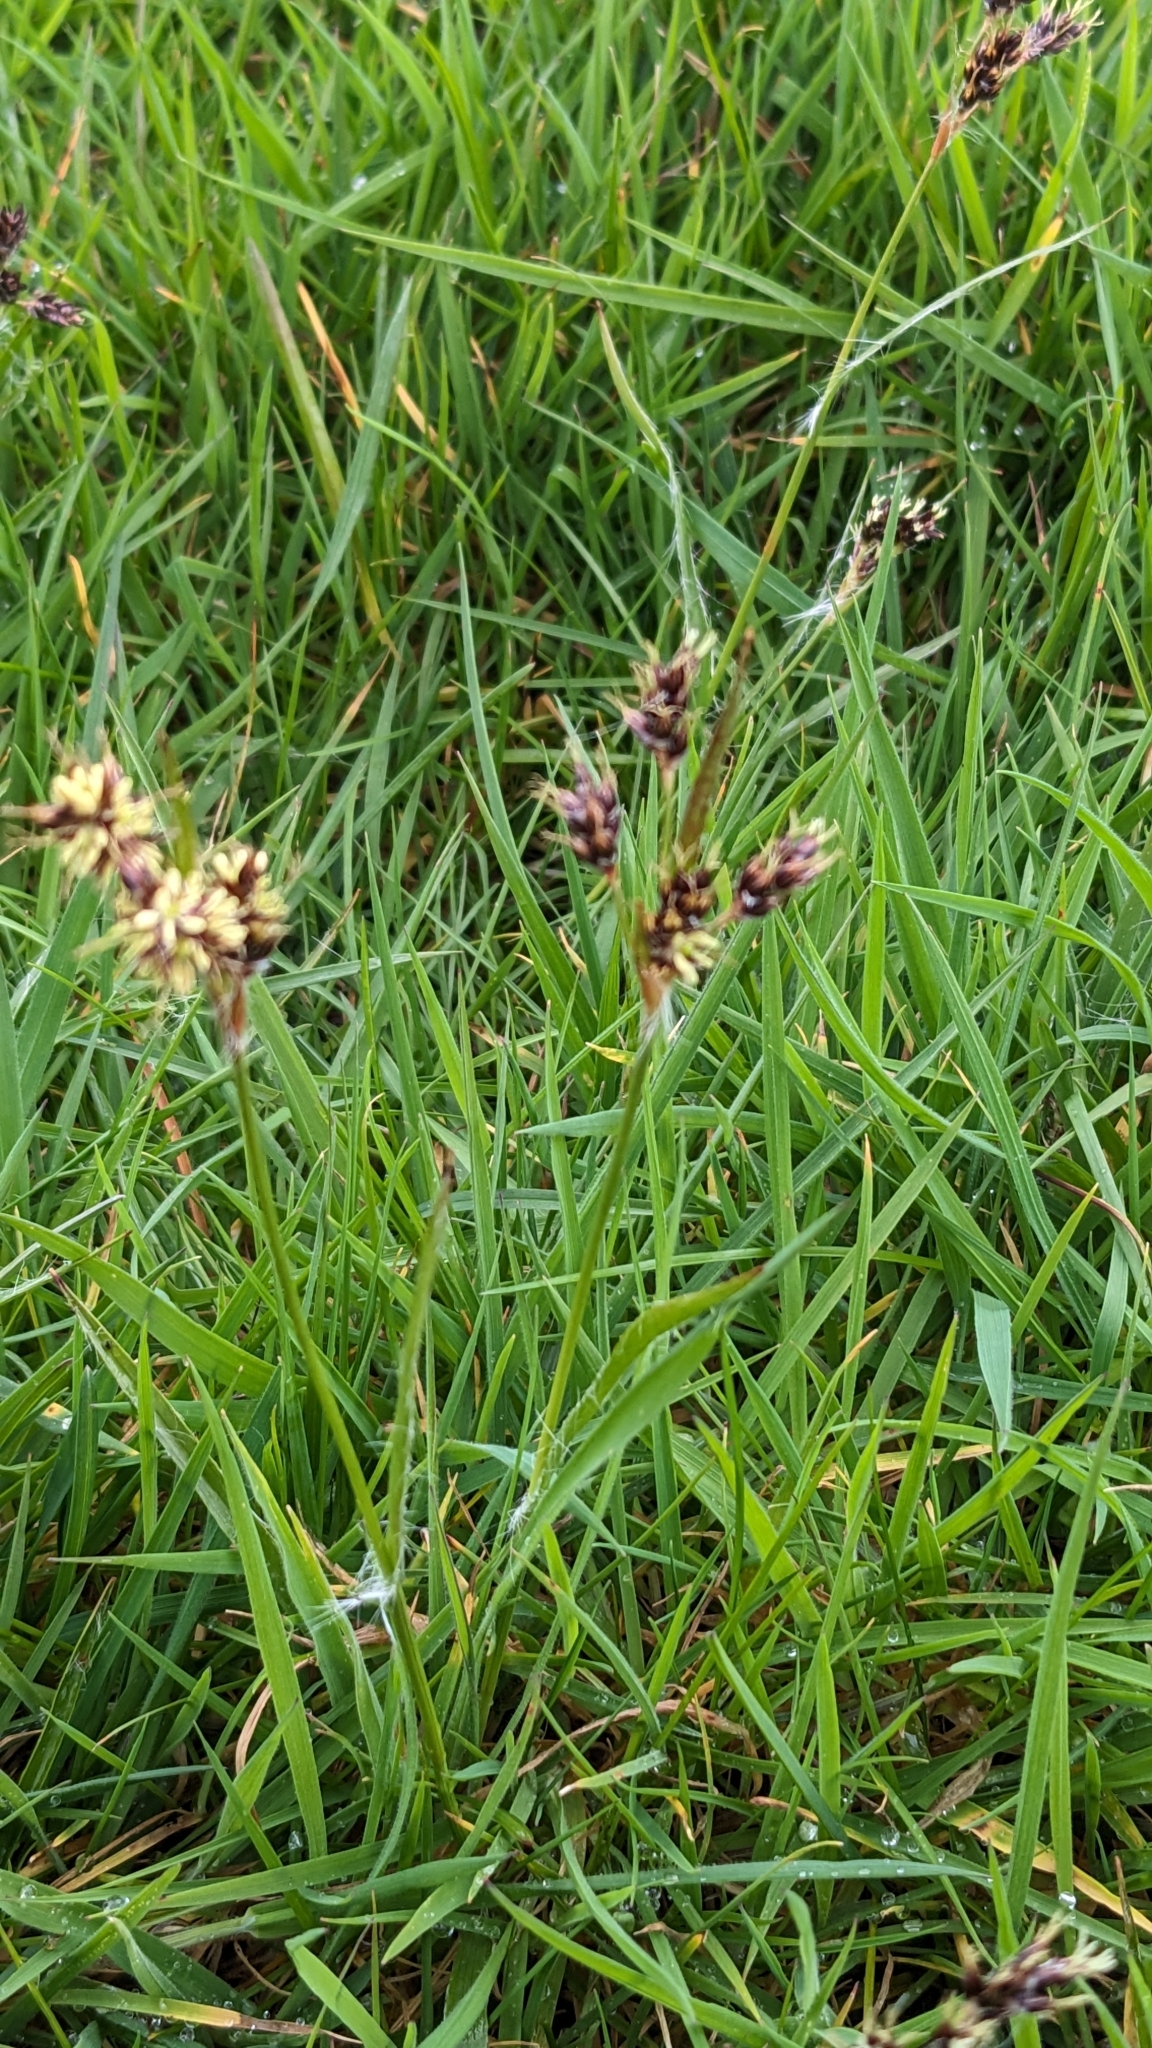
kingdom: Plantae
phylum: Tracheophyta
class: Liliopsida
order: Poales
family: Juncaceae
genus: Luzula
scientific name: Luzula campestris
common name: Field wood-rush
